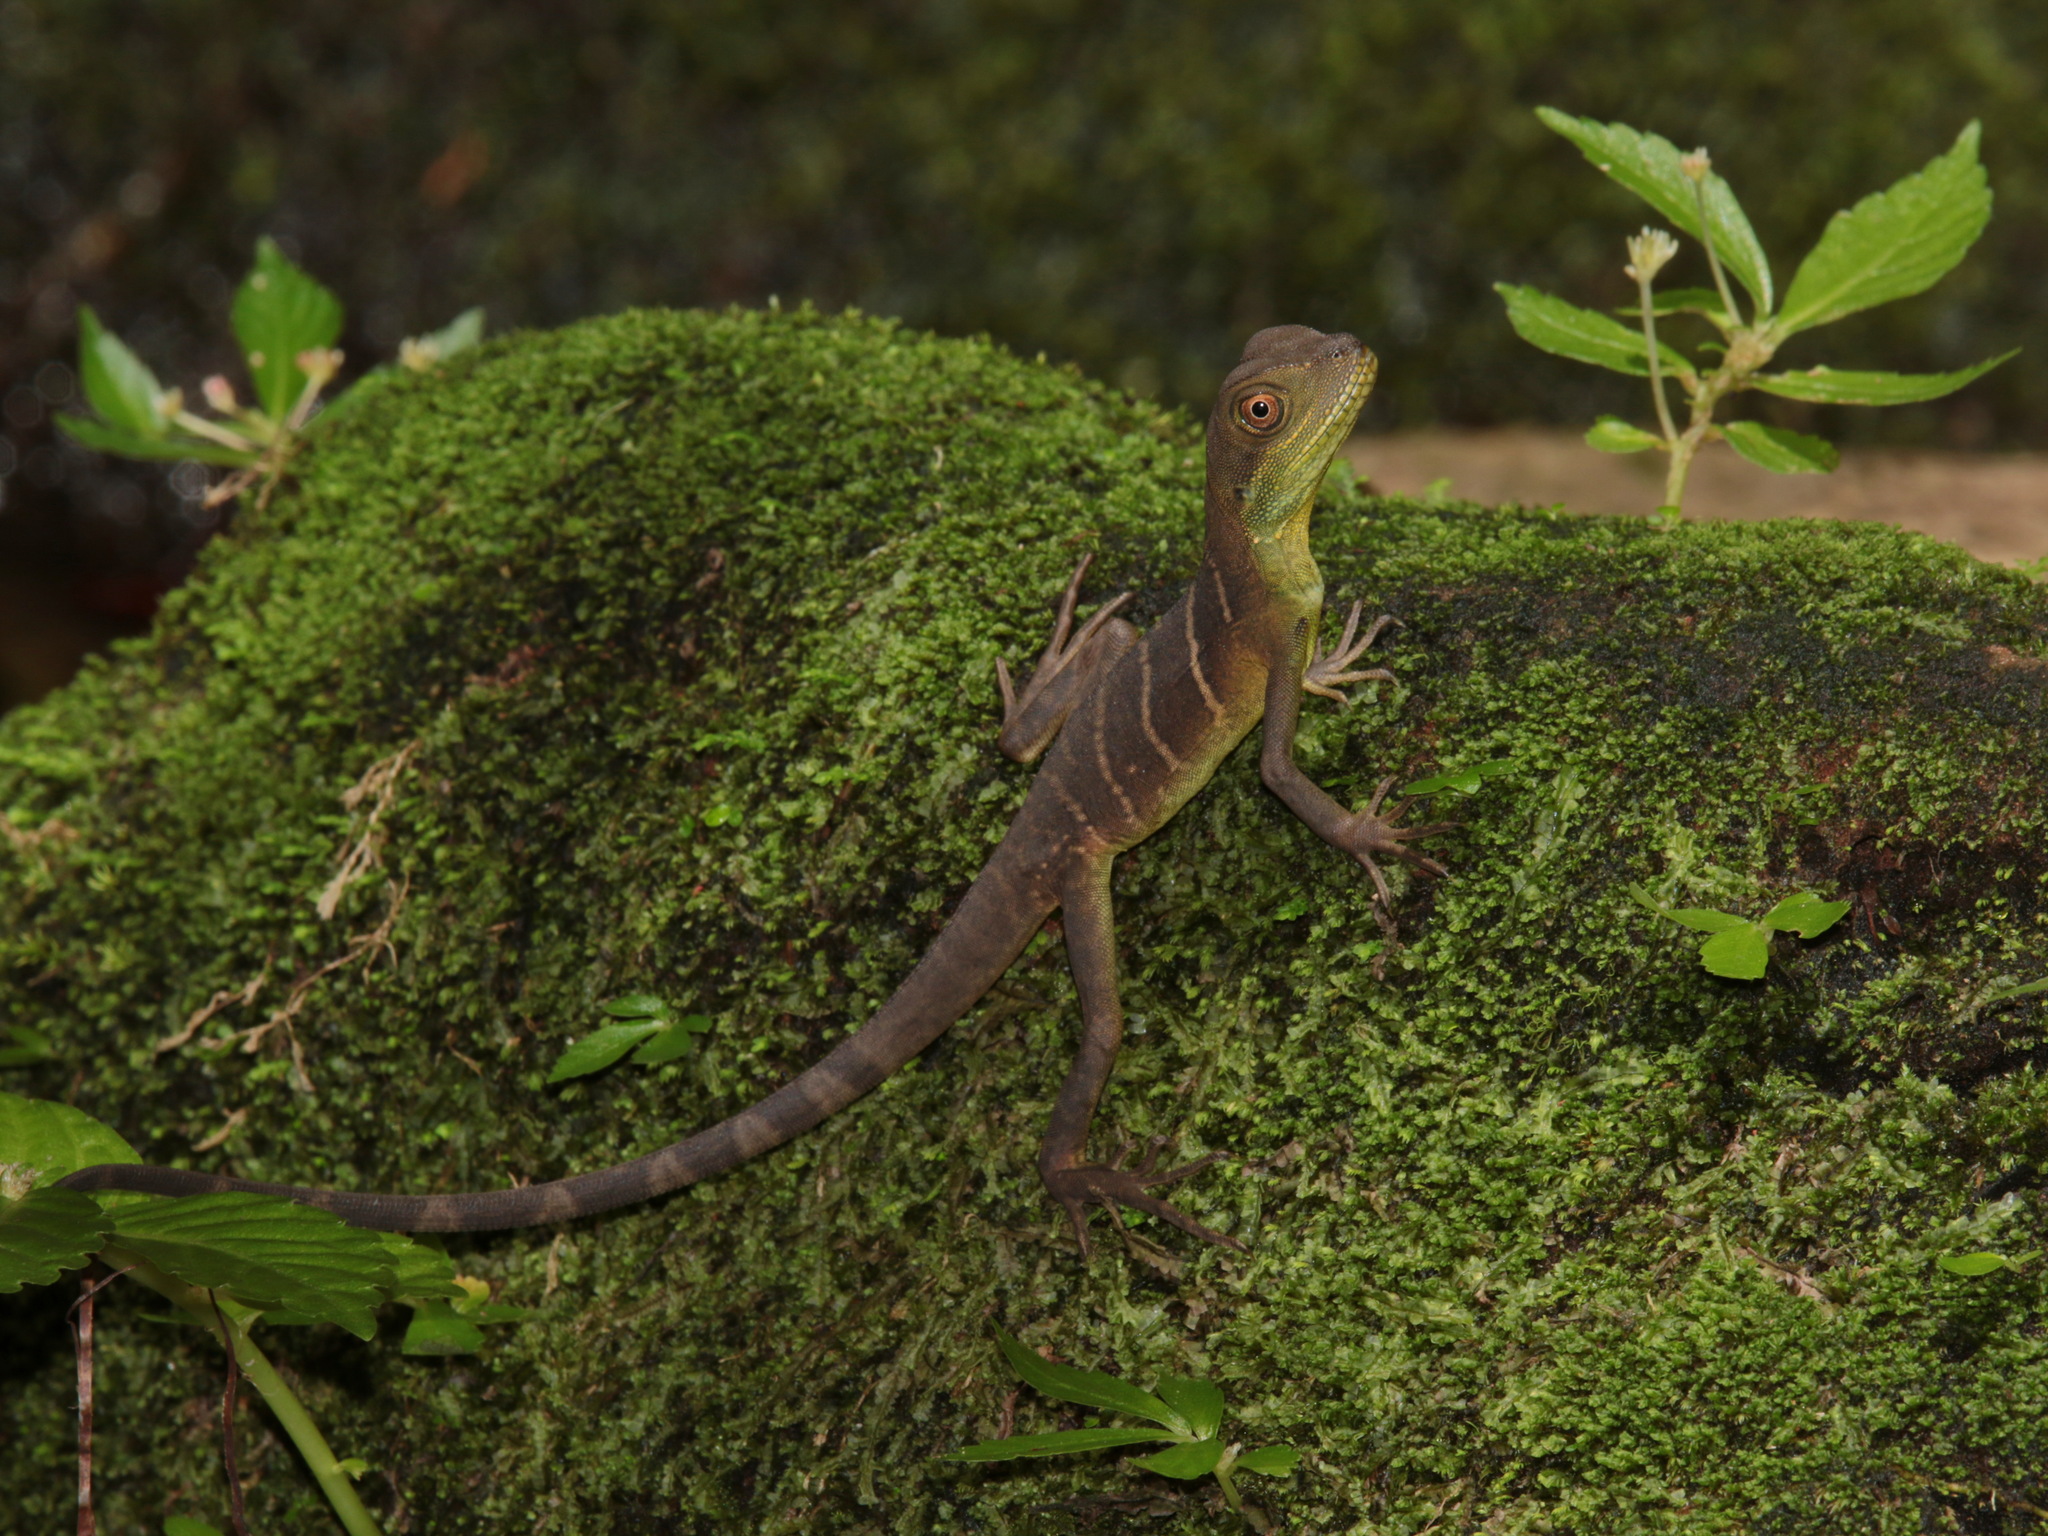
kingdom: Animalia
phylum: Chordata
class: Squamata
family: Agamidae
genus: Physignathus
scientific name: Physignathus cocincinus
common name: Asian water dragon
